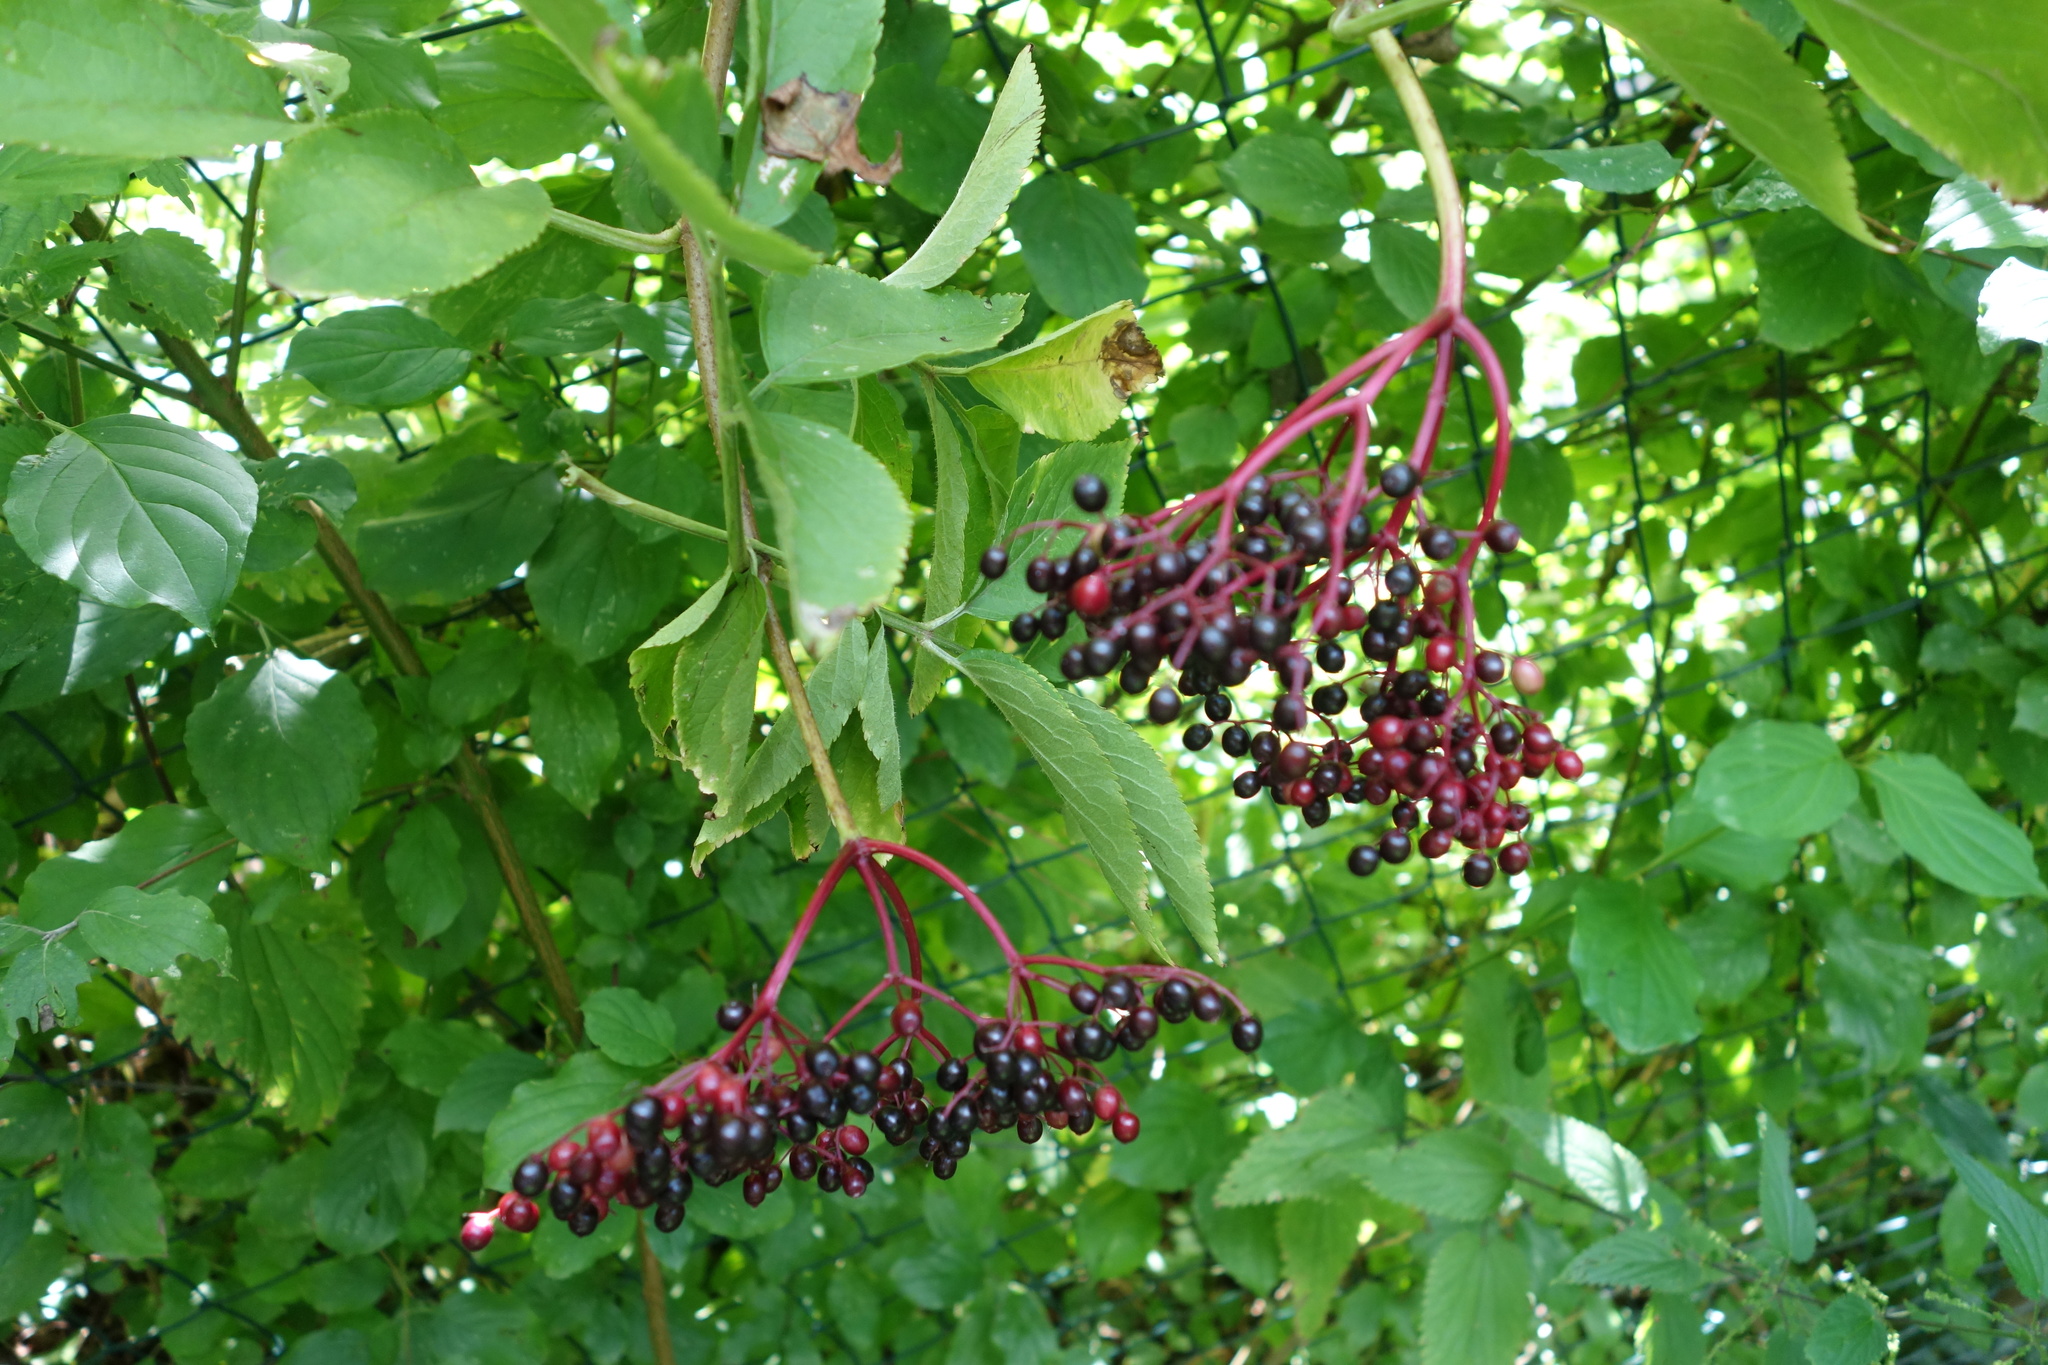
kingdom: Plantae
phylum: Tracheophyta
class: Magnoliopsida
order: Dipsacales
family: Viburnaceae
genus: Sambucus
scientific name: Sambucus nigra
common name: Elder
